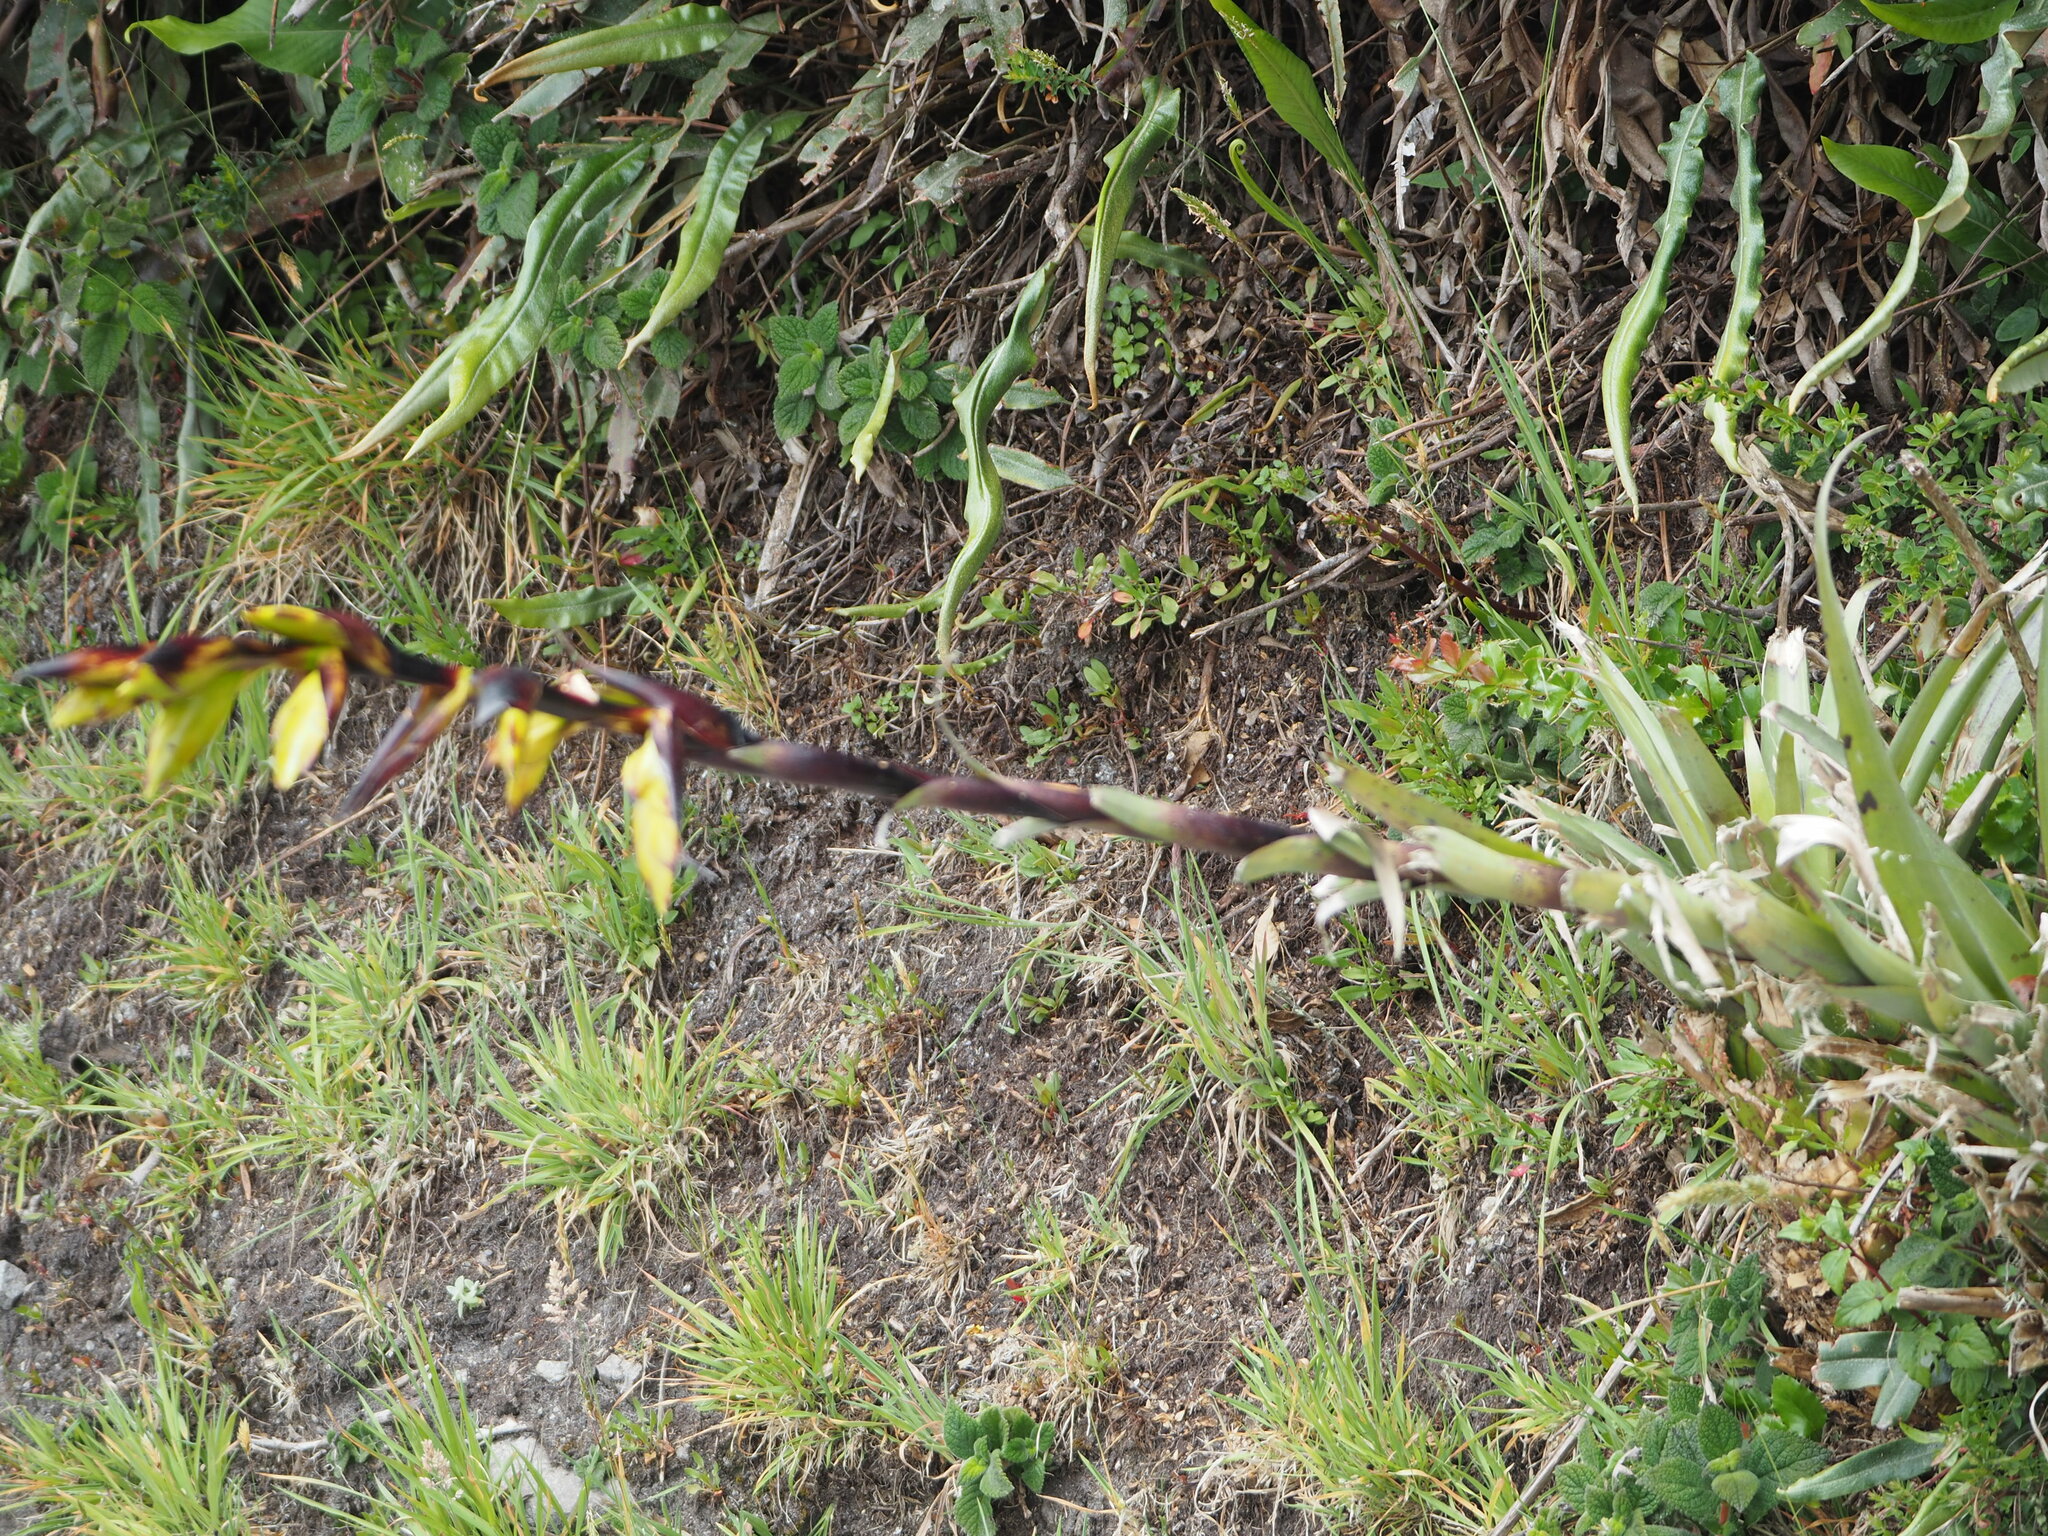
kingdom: Plantae
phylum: Tracheophyta
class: Liliopsida
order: Poales
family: Bromeliaceae
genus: Tillandsia
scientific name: Tillandsia lajensis
